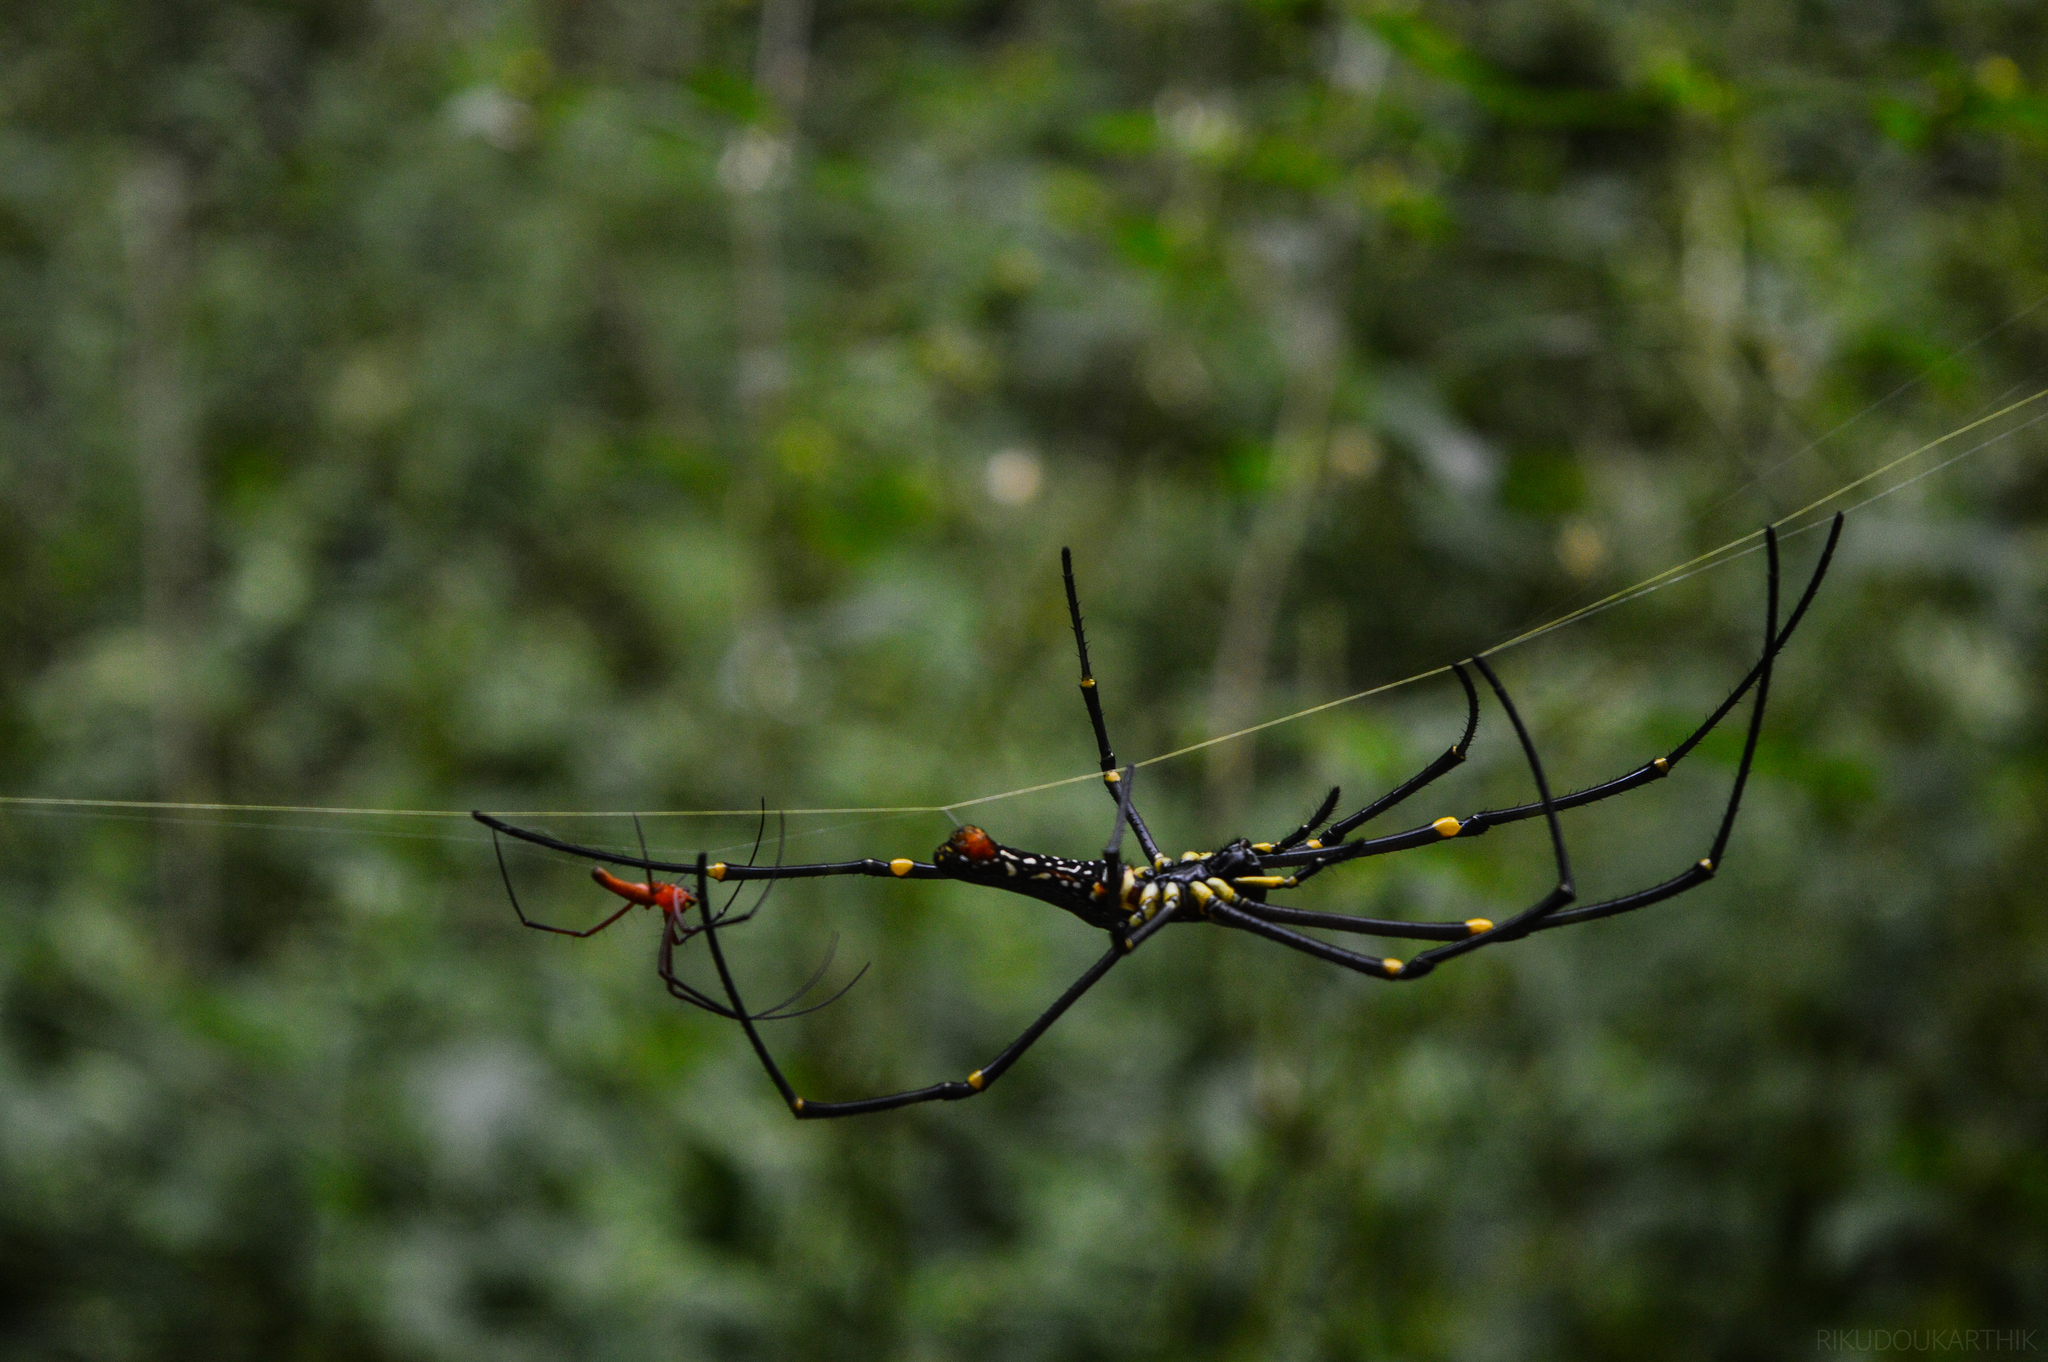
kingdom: Animalia
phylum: Arthropoda
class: Arachnida
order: Araneae
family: Araneidae
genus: Nephila
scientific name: Nephila pilipes
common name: Giant golden orb weaver
